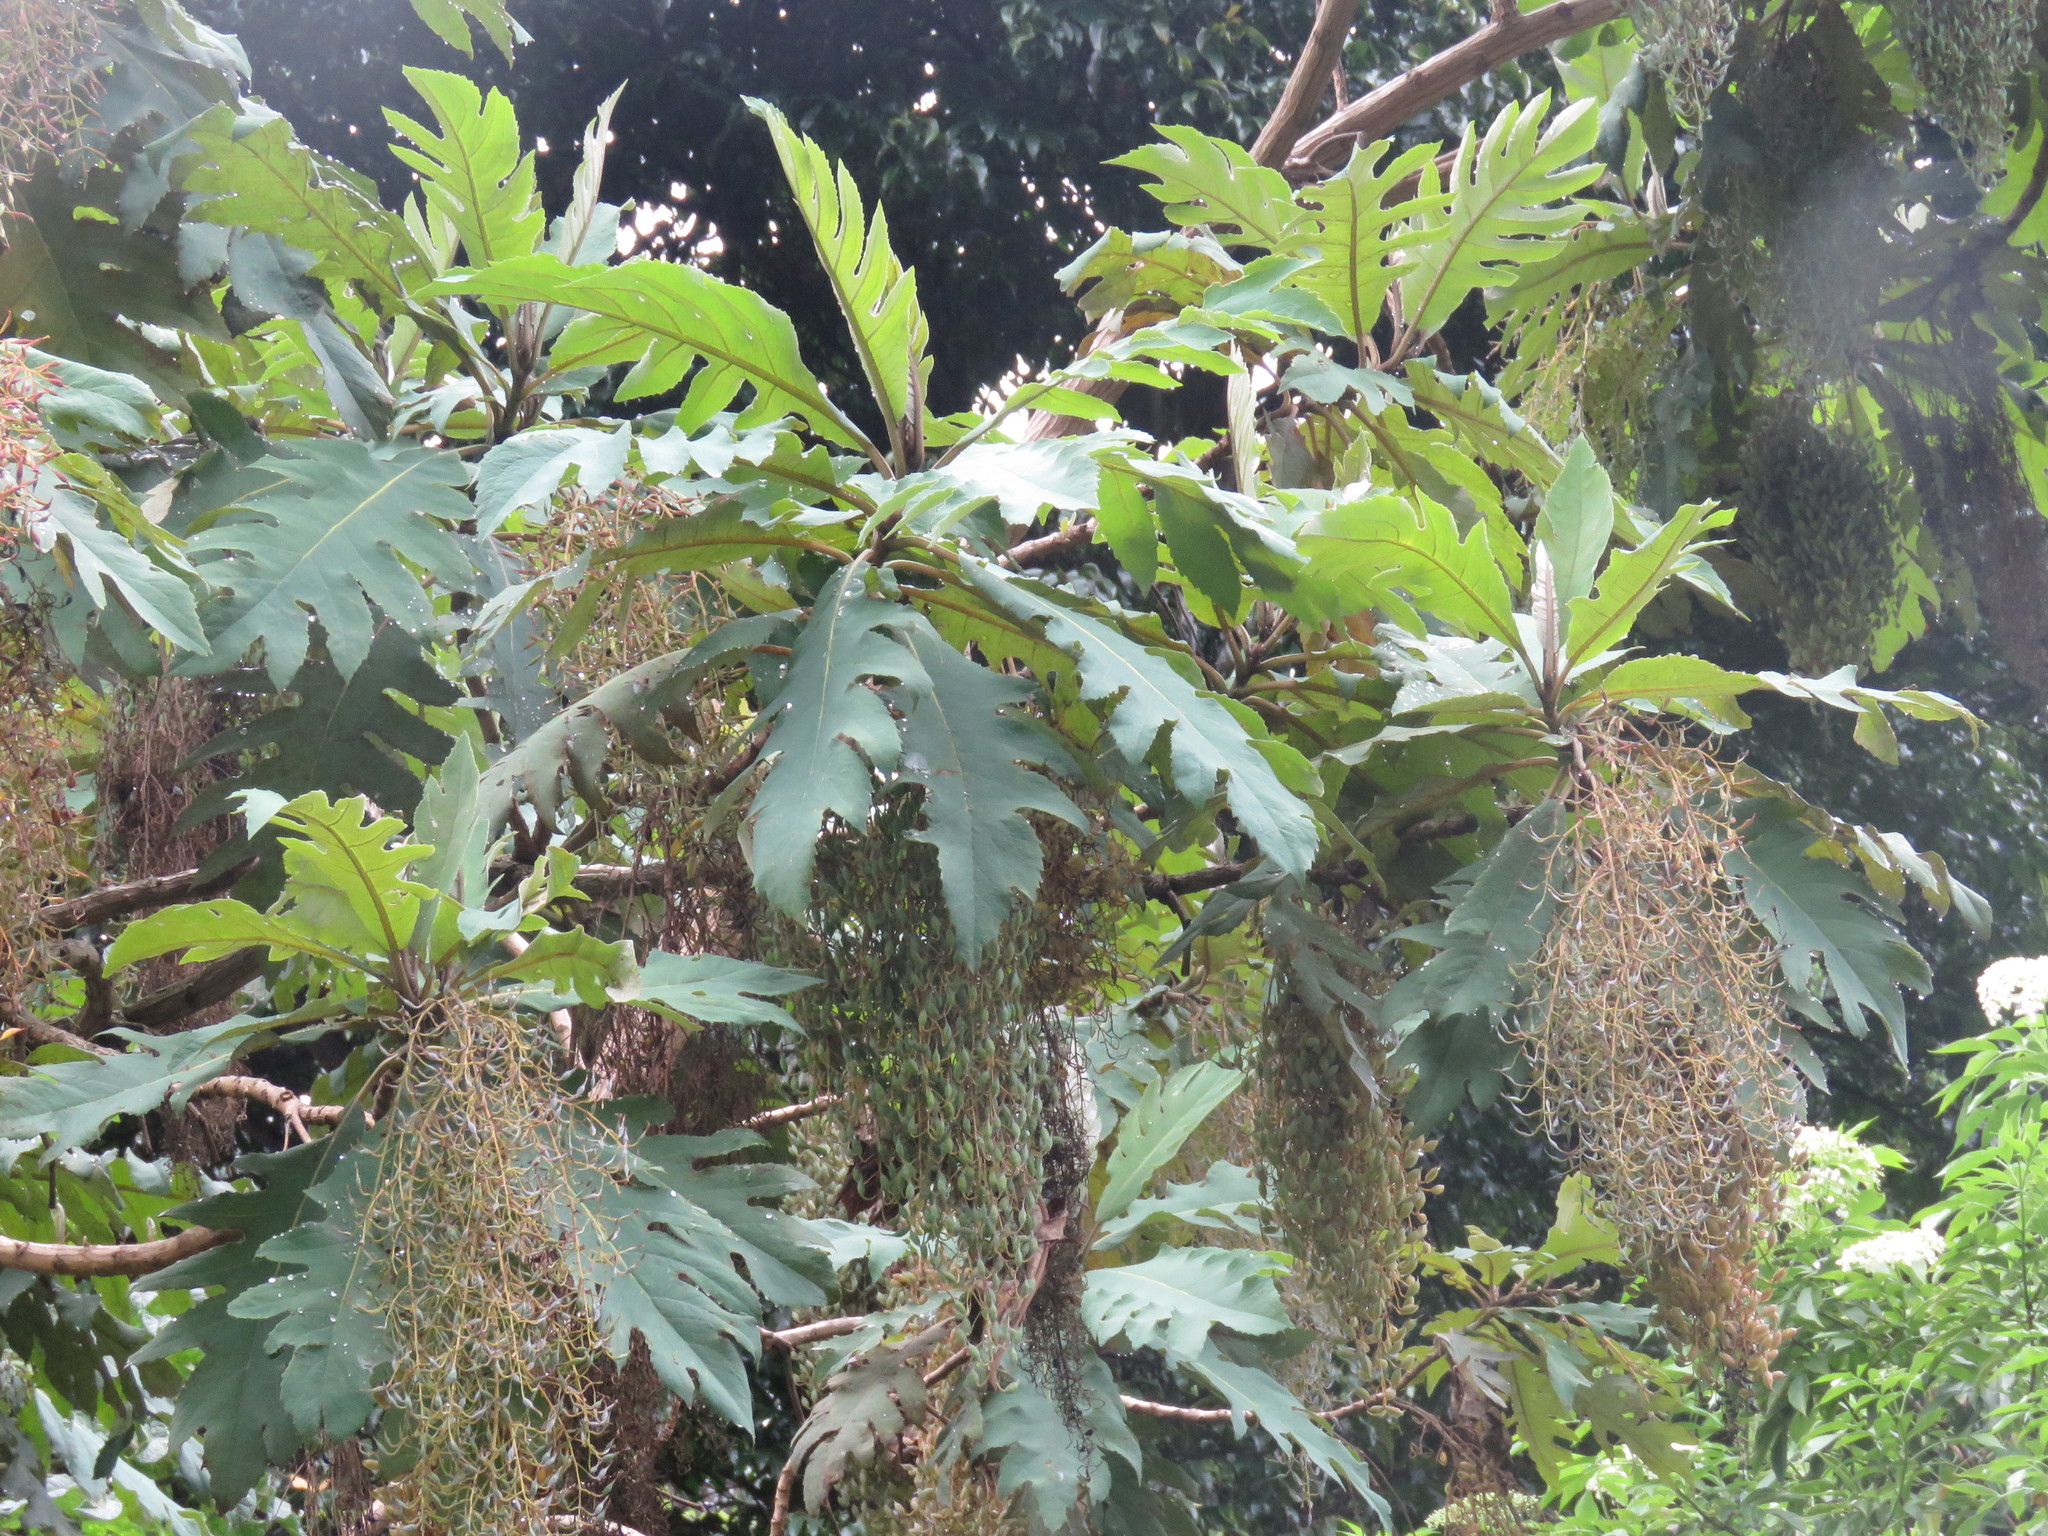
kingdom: Plantae
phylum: Tracheophyta
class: Magnoliopsida
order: Ranunculales
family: Papaveraceae
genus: Bocconia
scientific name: Bocconia frutescens
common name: Tree poppy
